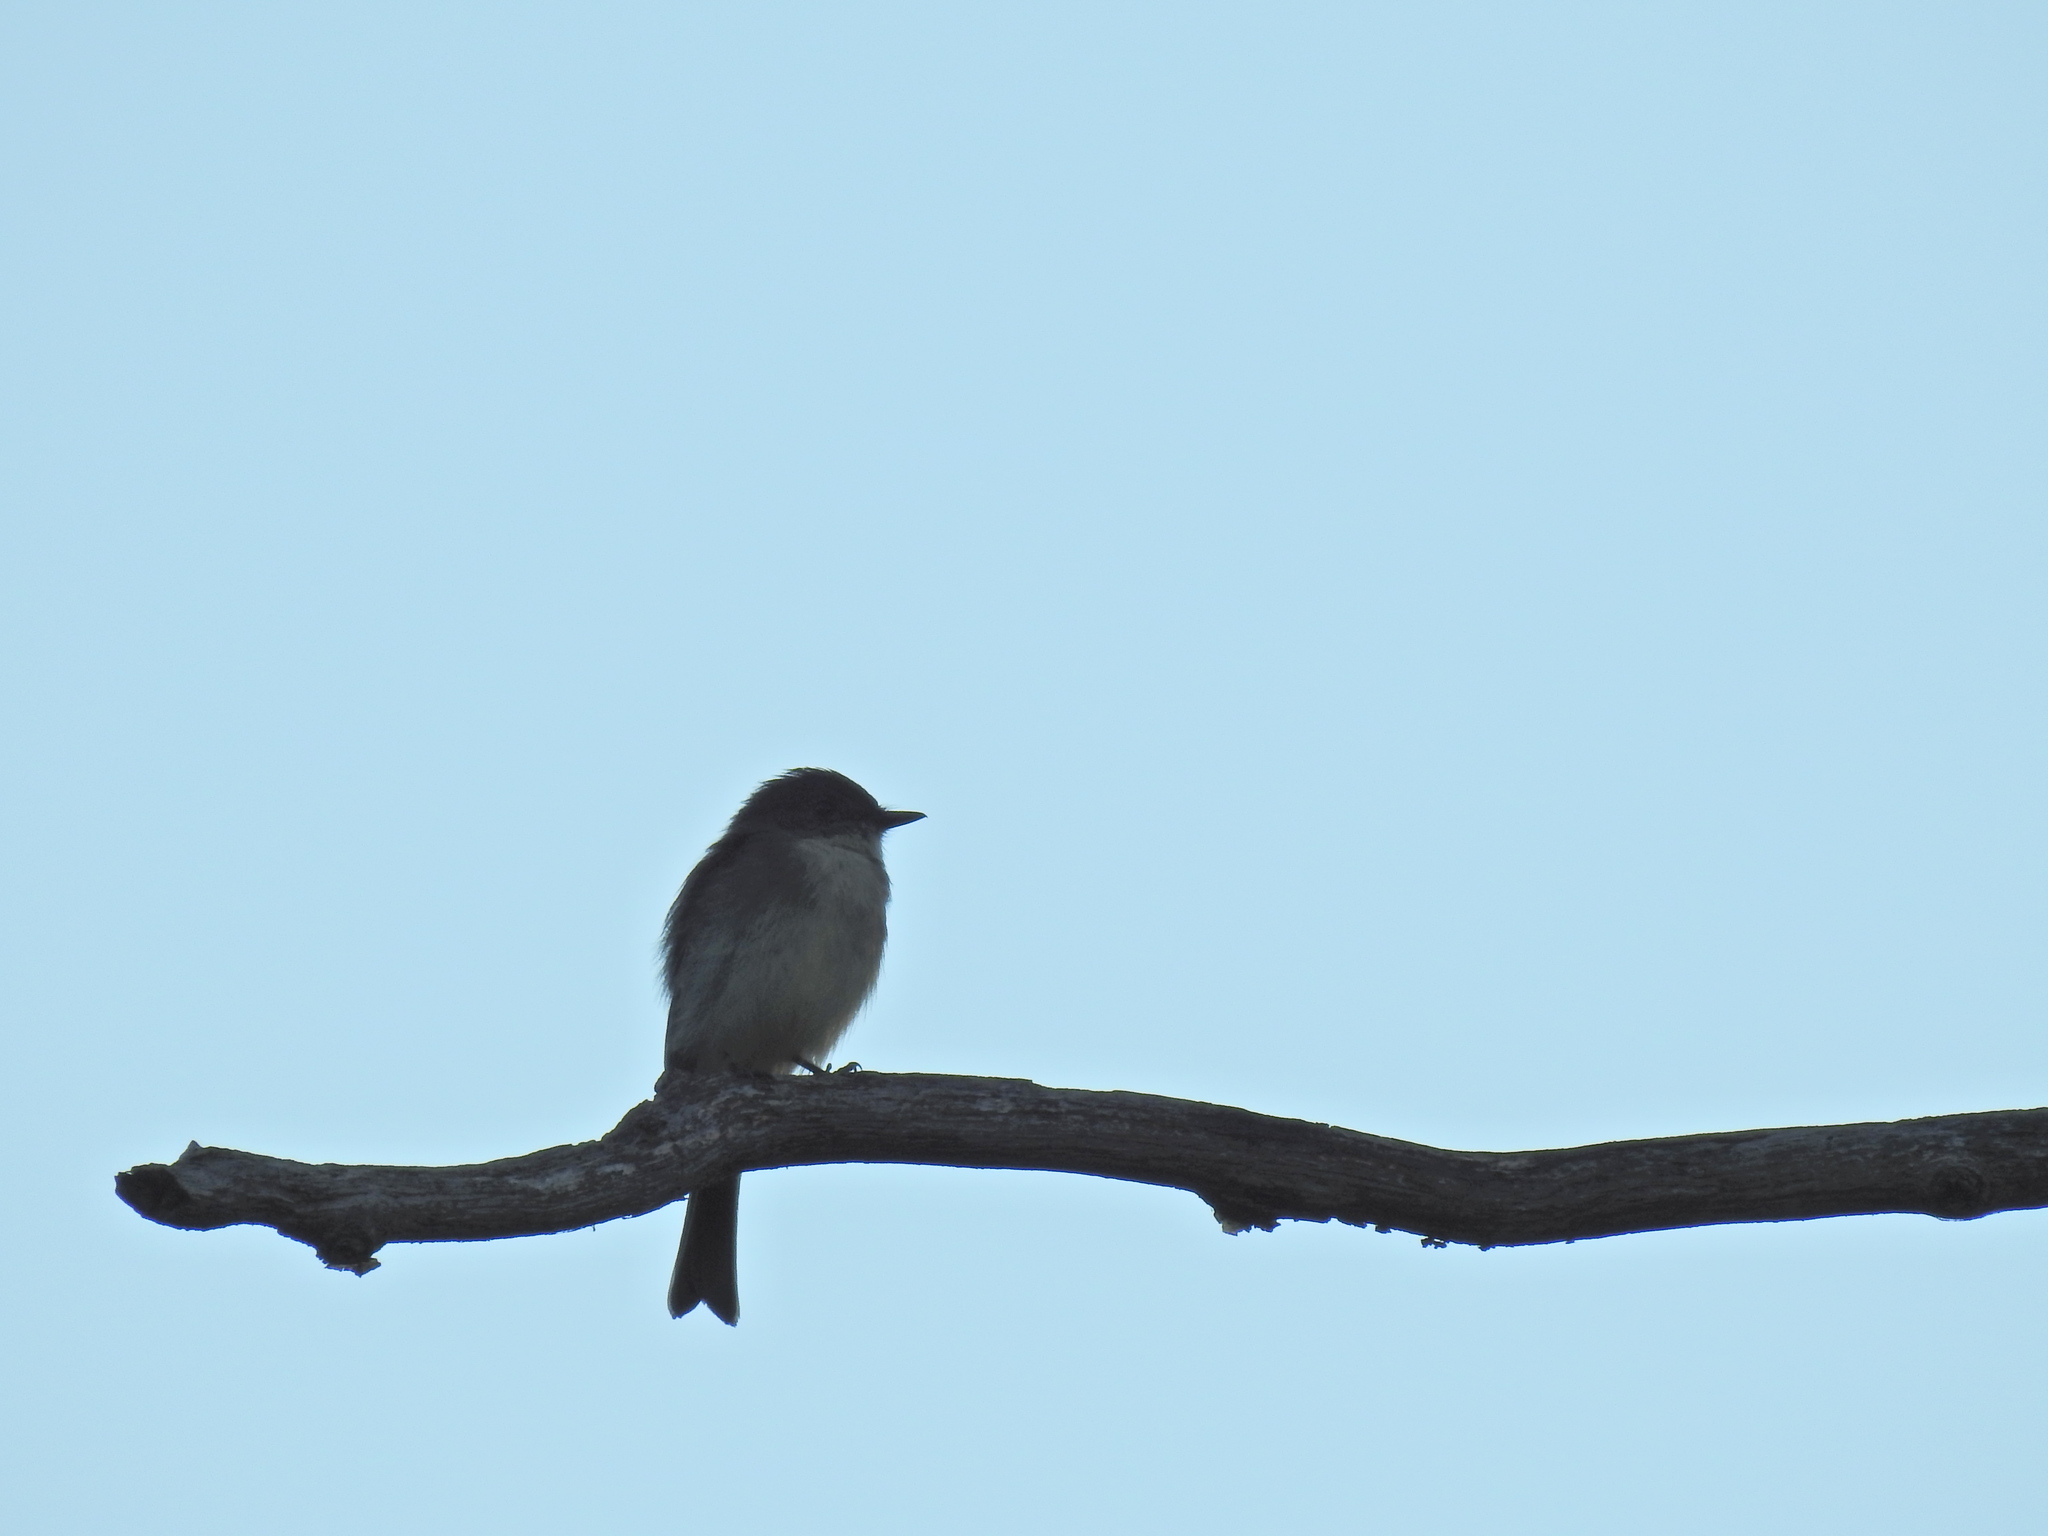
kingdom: Animalia
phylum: Chordata
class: Aves
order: Passeriformes
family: Tyrannidae
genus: Sayornis
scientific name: Sayornis phoebe
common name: Eastern phoebe
